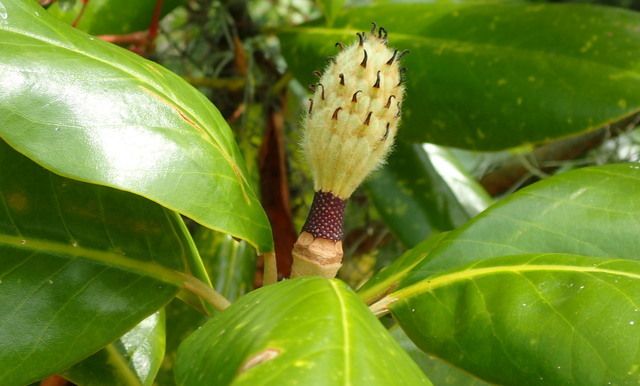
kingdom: Plantae
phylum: Tracheophyta
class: Magnoliopsida
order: Magnoliales
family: Magnoliaceae
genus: Magnolia
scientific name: Magnolia grandiflora
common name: Southern magnolia
